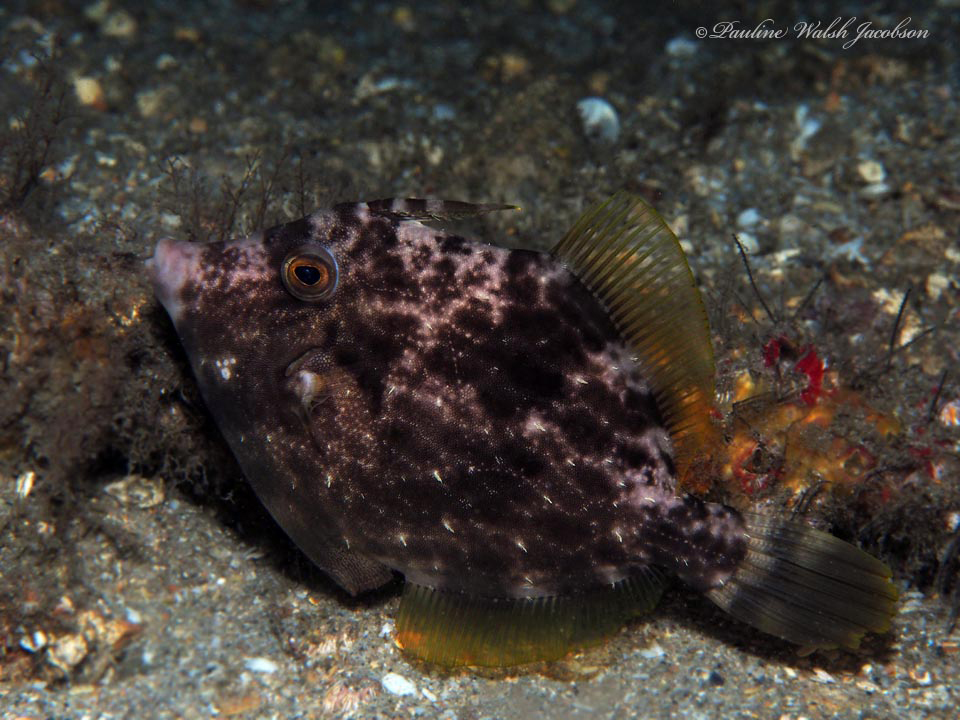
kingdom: Animalia
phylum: Chordata
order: Tetraodontiformes
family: Monacanthidae
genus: Stephanolepis
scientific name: Stephanolepis hispidus
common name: Planehead filefish
